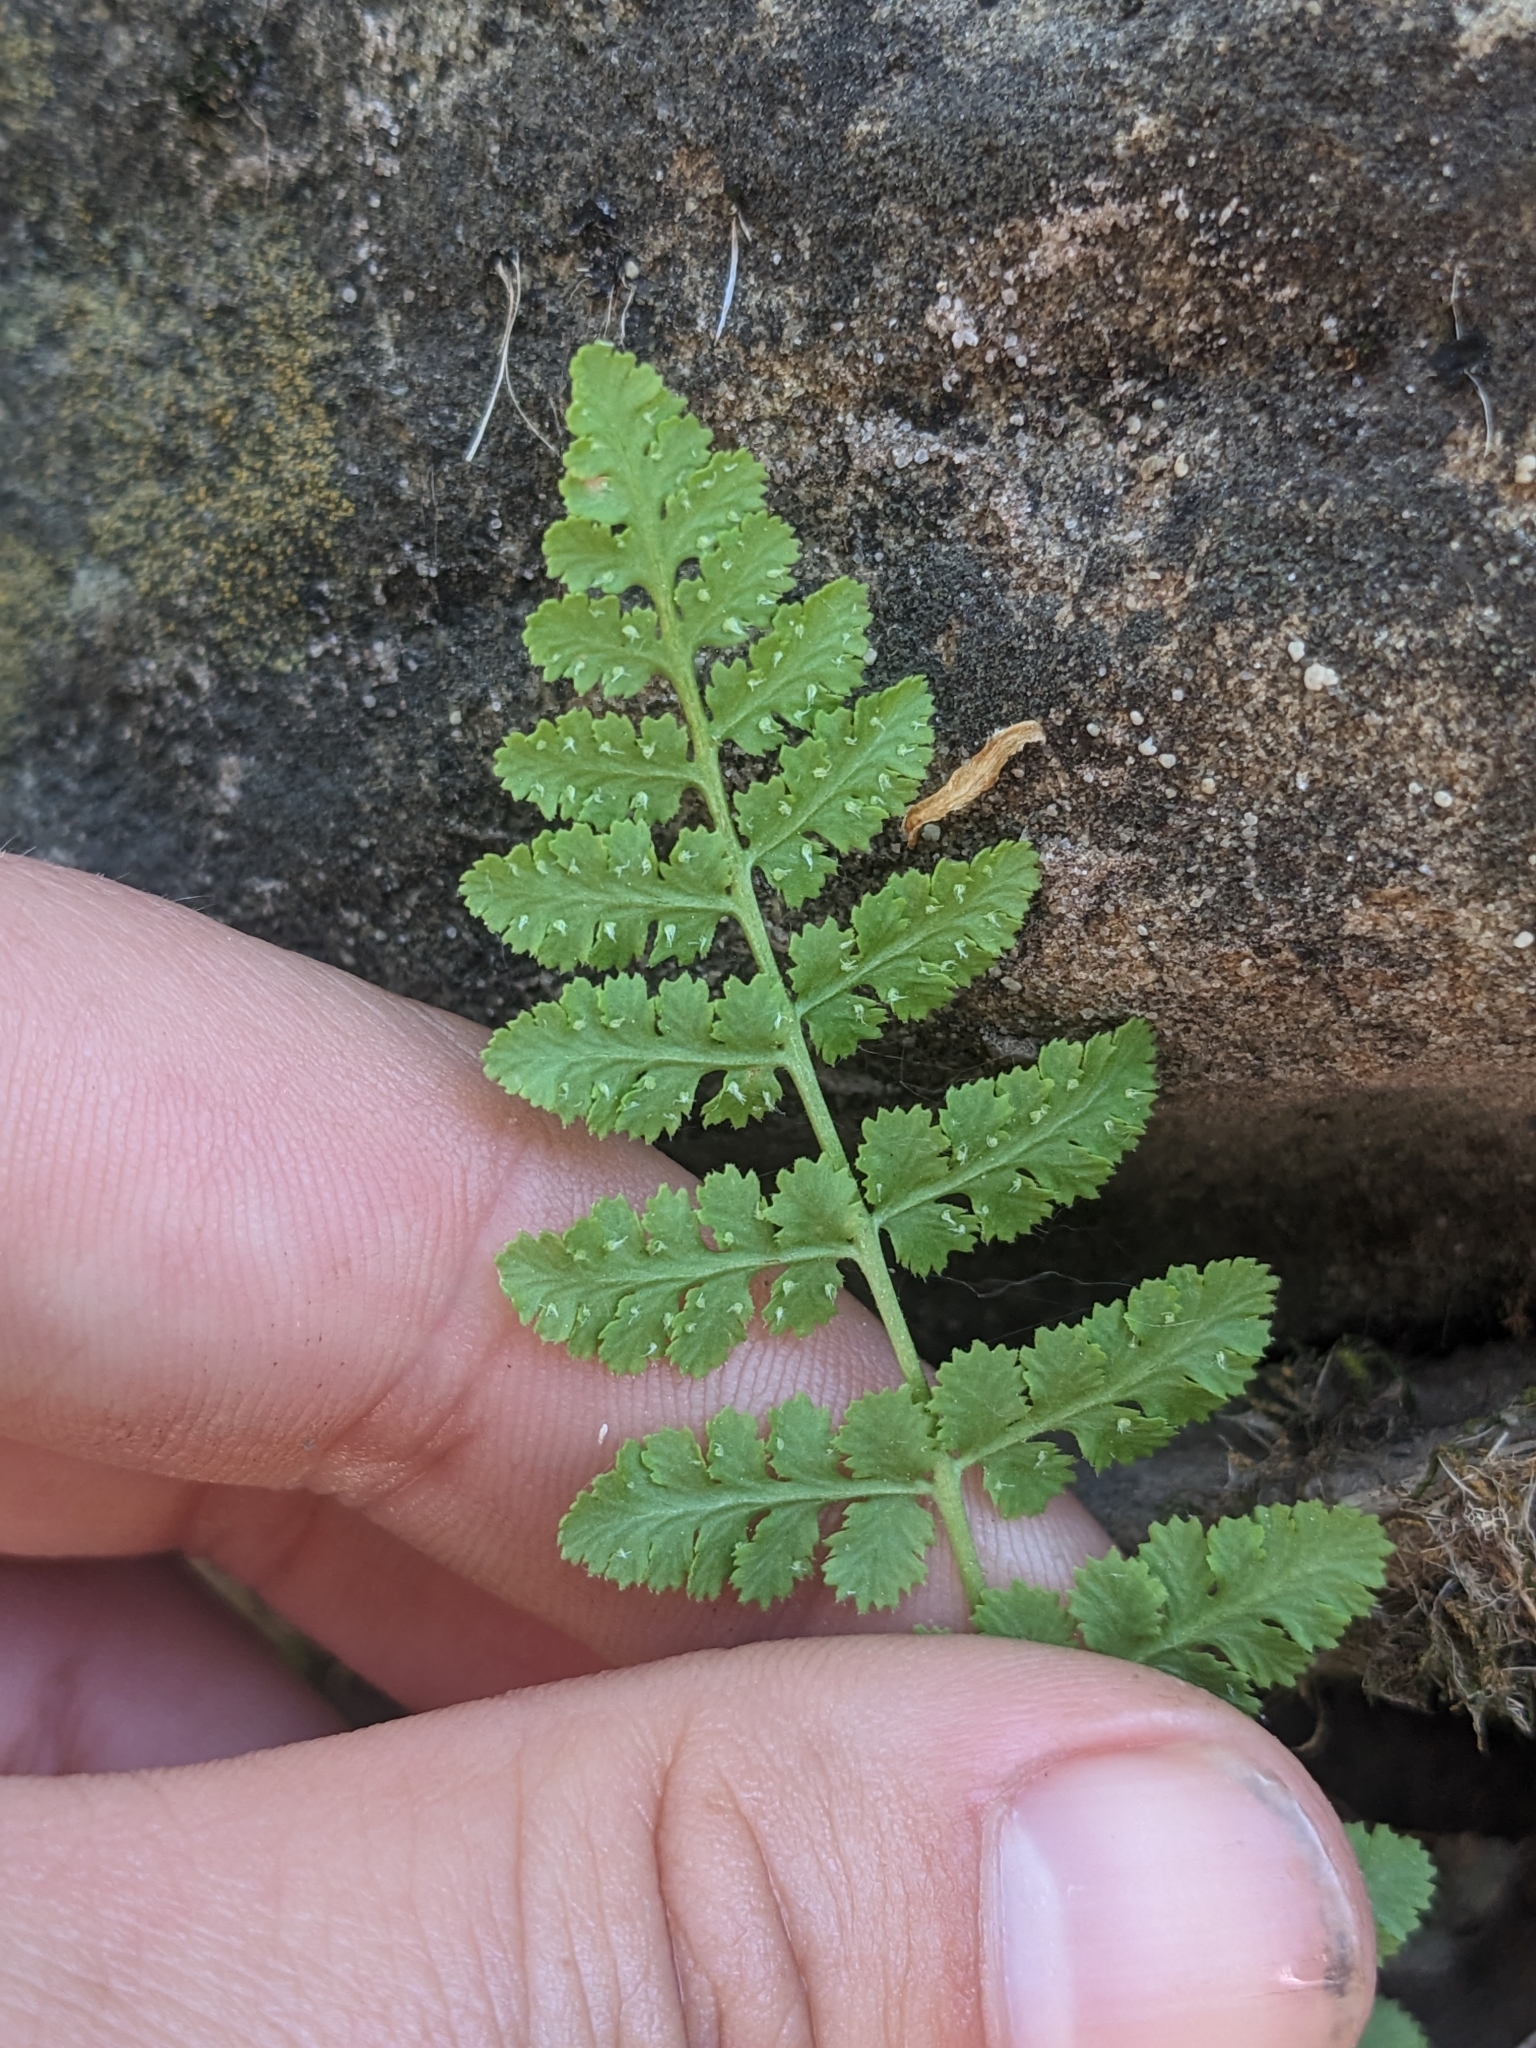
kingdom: Plantae
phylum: Tracheophyta
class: Polypodiopsida
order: Polypodiales
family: Woodsiaceae
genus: Physematium
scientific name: Physematium neomexicanum
